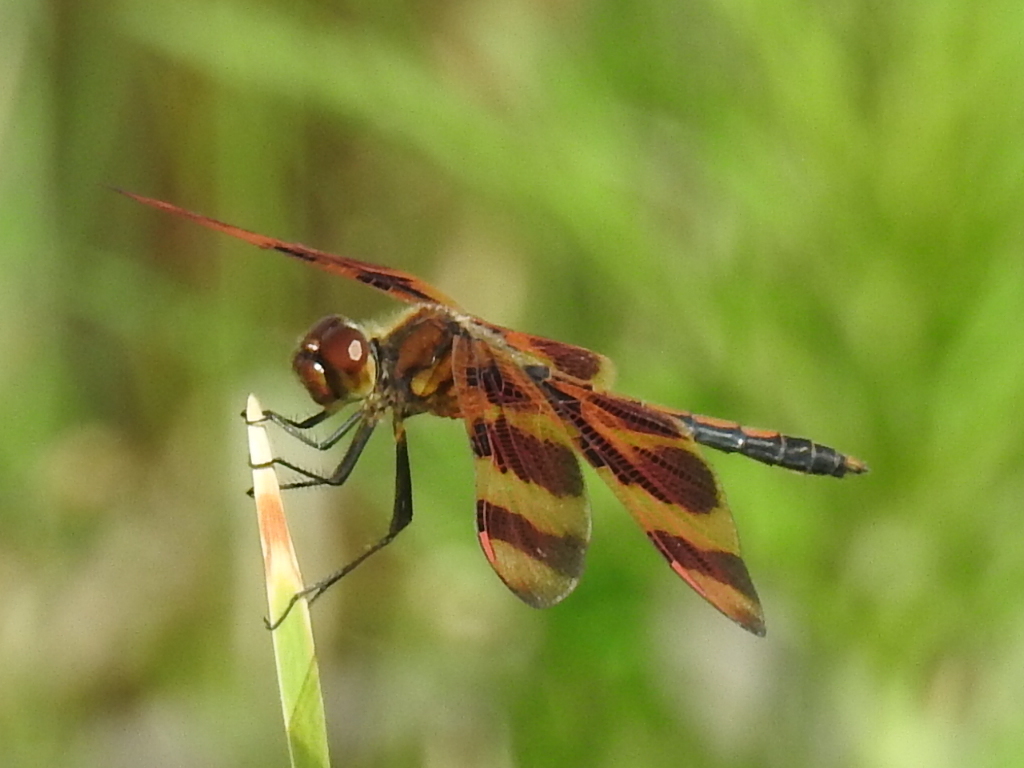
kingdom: Animalia
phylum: Arthropoda
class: Insecta
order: Odonata
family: Libellulidae
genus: Celithemis
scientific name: Celithemis eponina
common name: Halloween pennant
